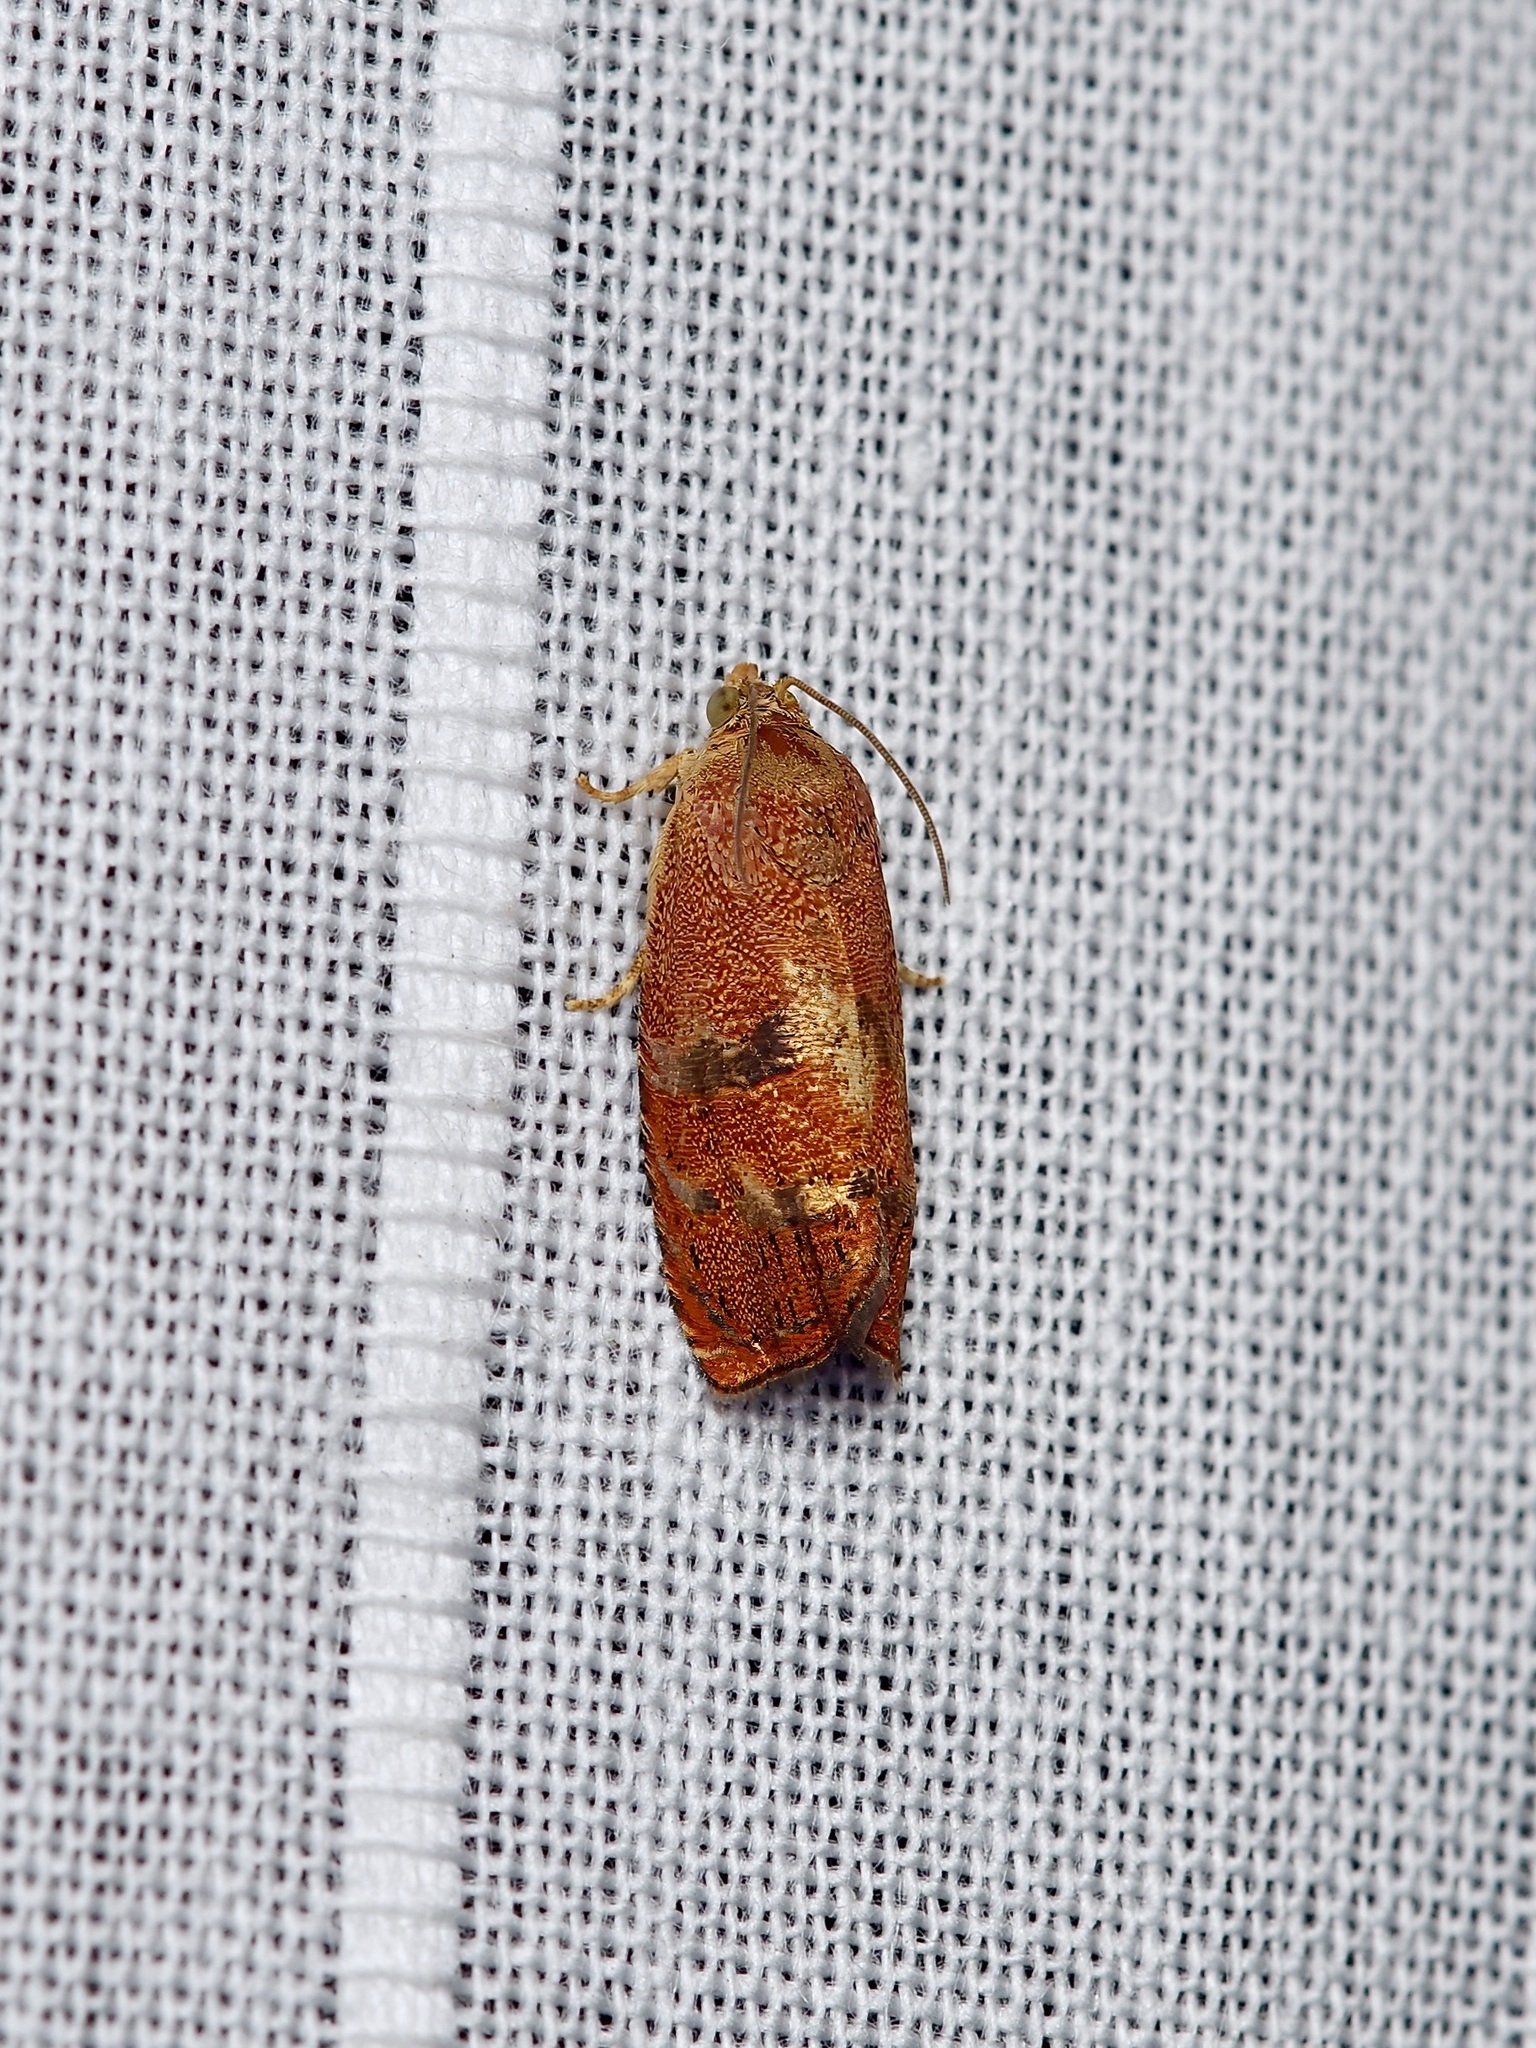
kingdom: Animalia
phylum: Arthropoda
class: Insecta
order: Lepidoptera
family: Tortricidae
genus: Cydia
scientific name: Cydia latiferreana
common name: Filbertworm moth
